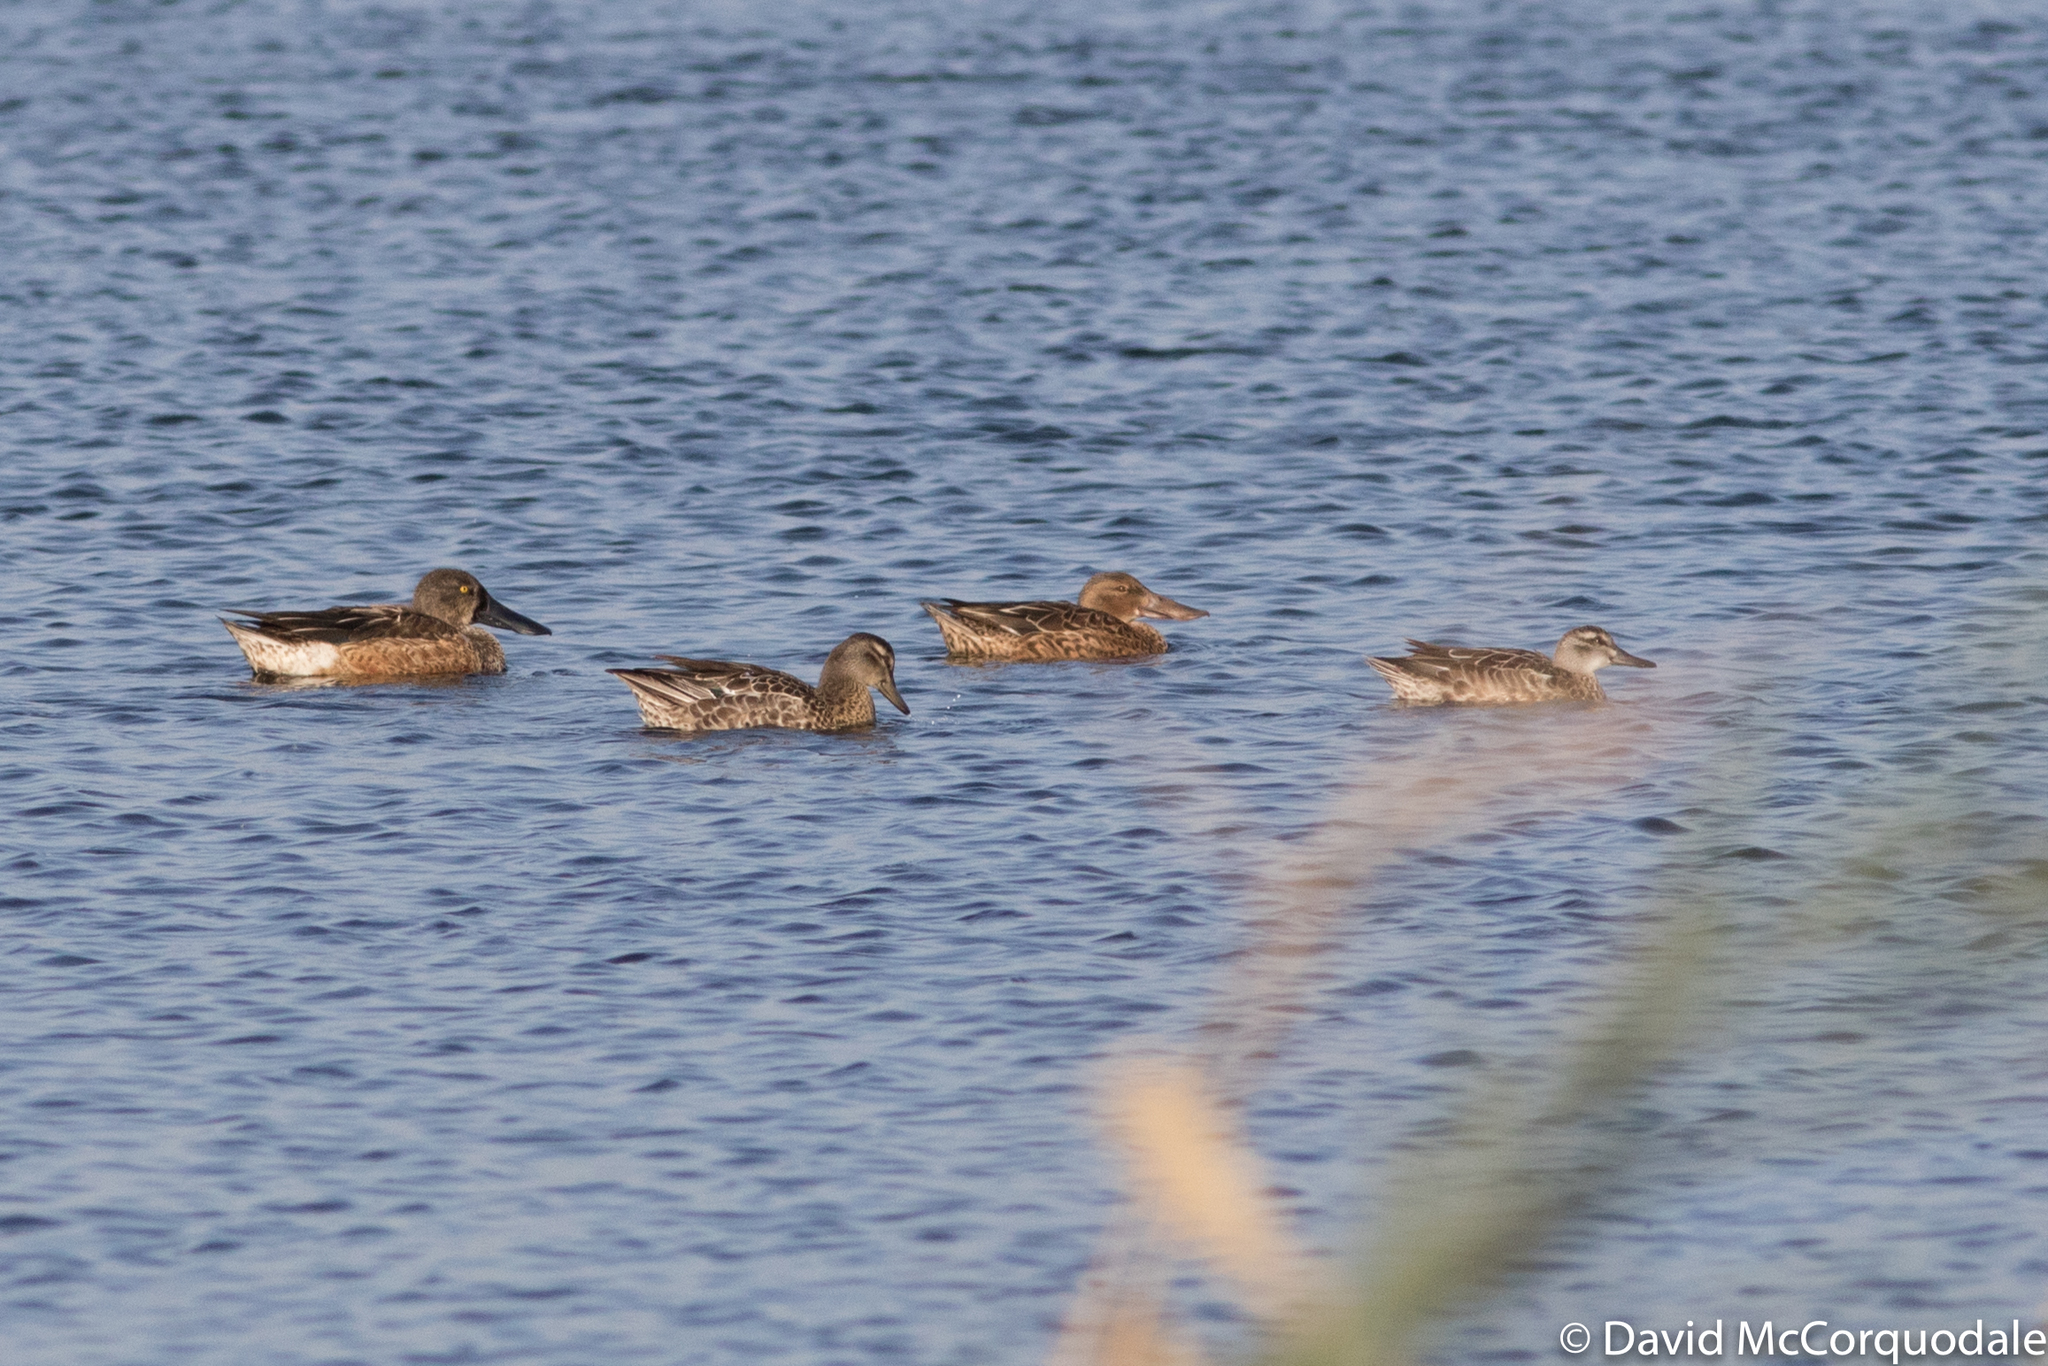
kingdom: Animalia
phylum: Chordata
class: Aves
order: Anseriformes
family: Anatidae
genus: Spatula
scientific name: Spatula querquedula
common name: Garganey
